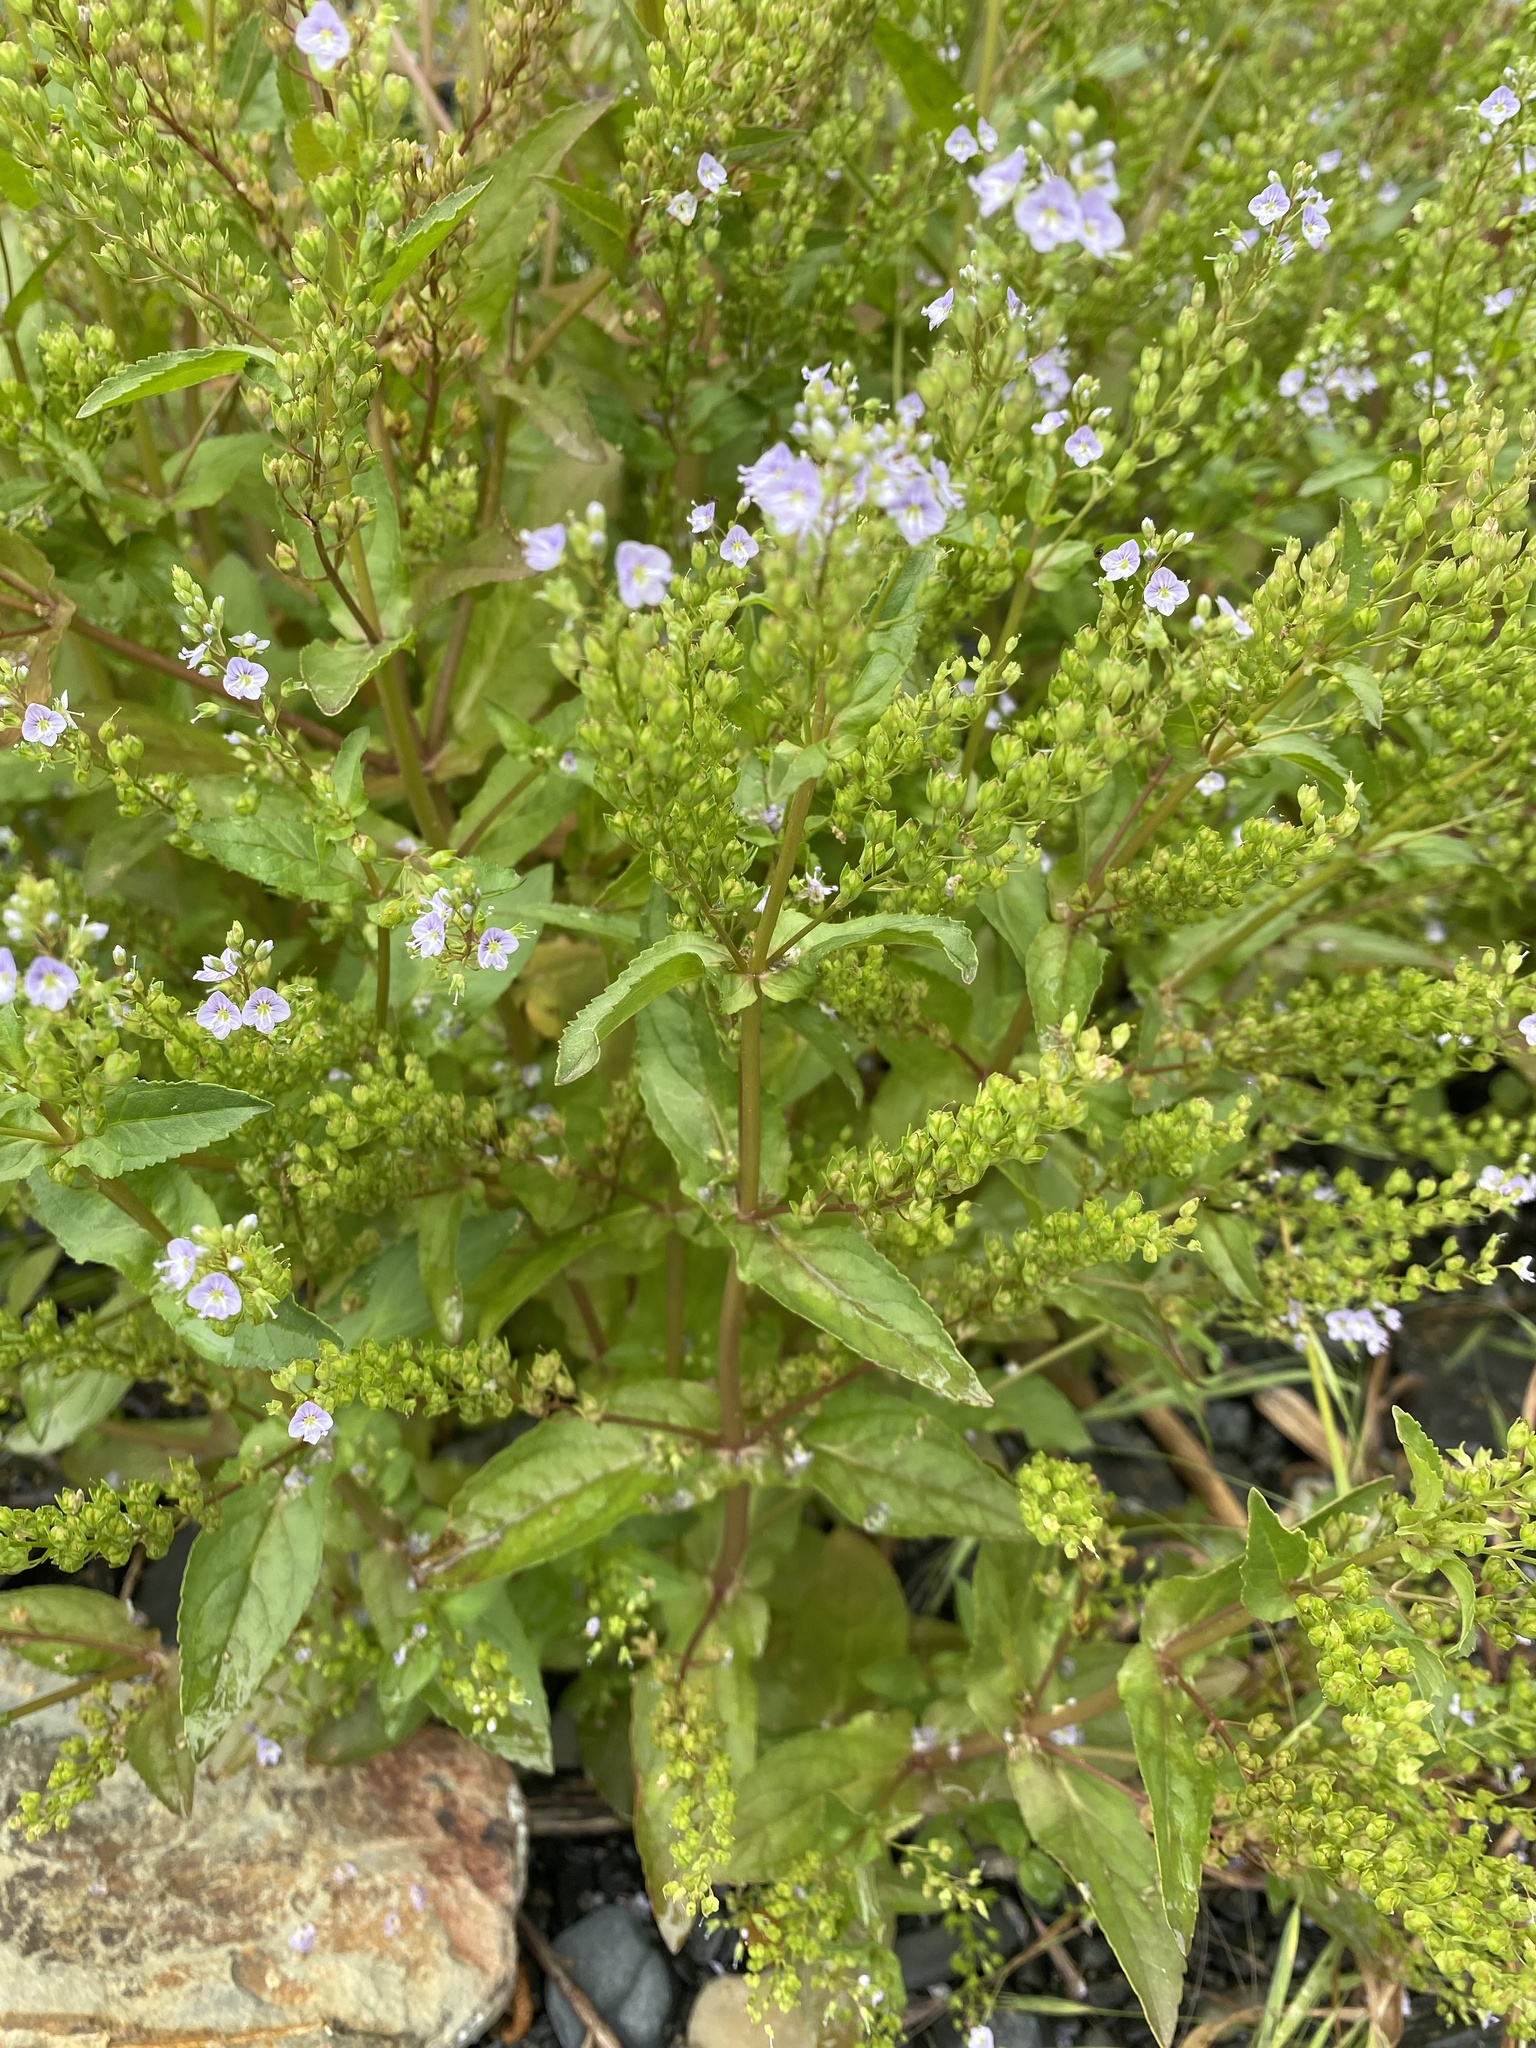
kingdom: Plantae
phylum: Tracheophyta
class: Magnoliopsida
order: Lamiales
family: Plantaginaceae
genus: Veronica
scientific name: Veronica anagallis-aquatica
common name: Water speedwell
